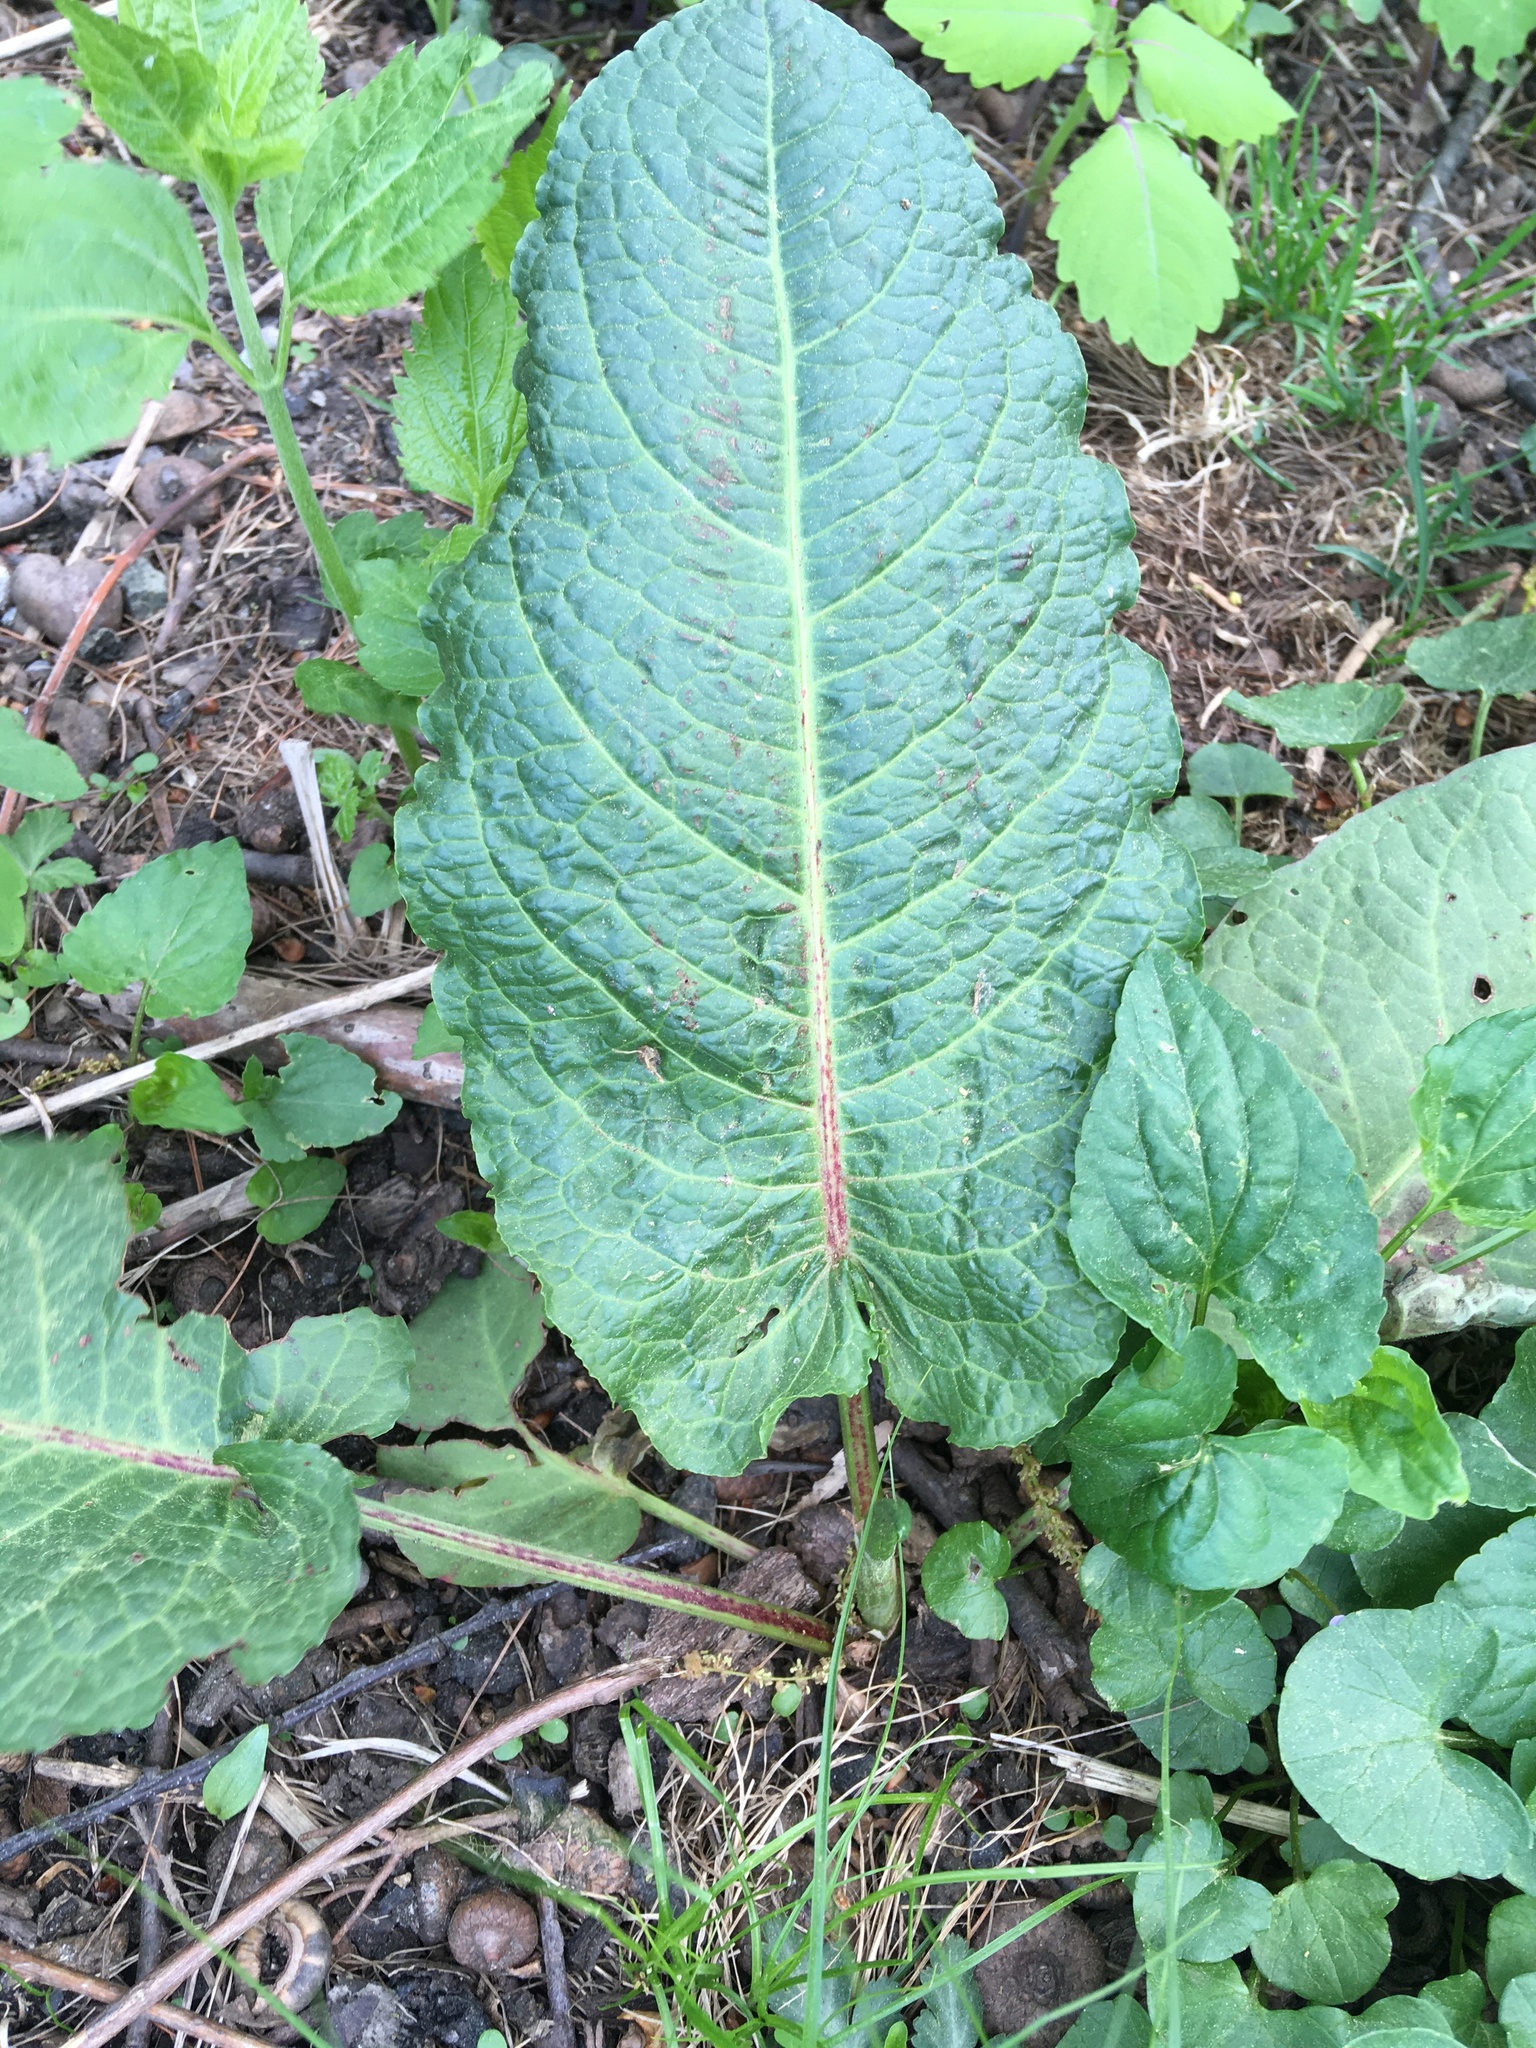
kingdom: Plantae
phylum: Tracheophyta
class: Magnoliopsida
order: Caryophyllales
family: Polygonaceae
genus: Rumex
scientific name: Rumex obtusifolius
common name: Bitter dock
